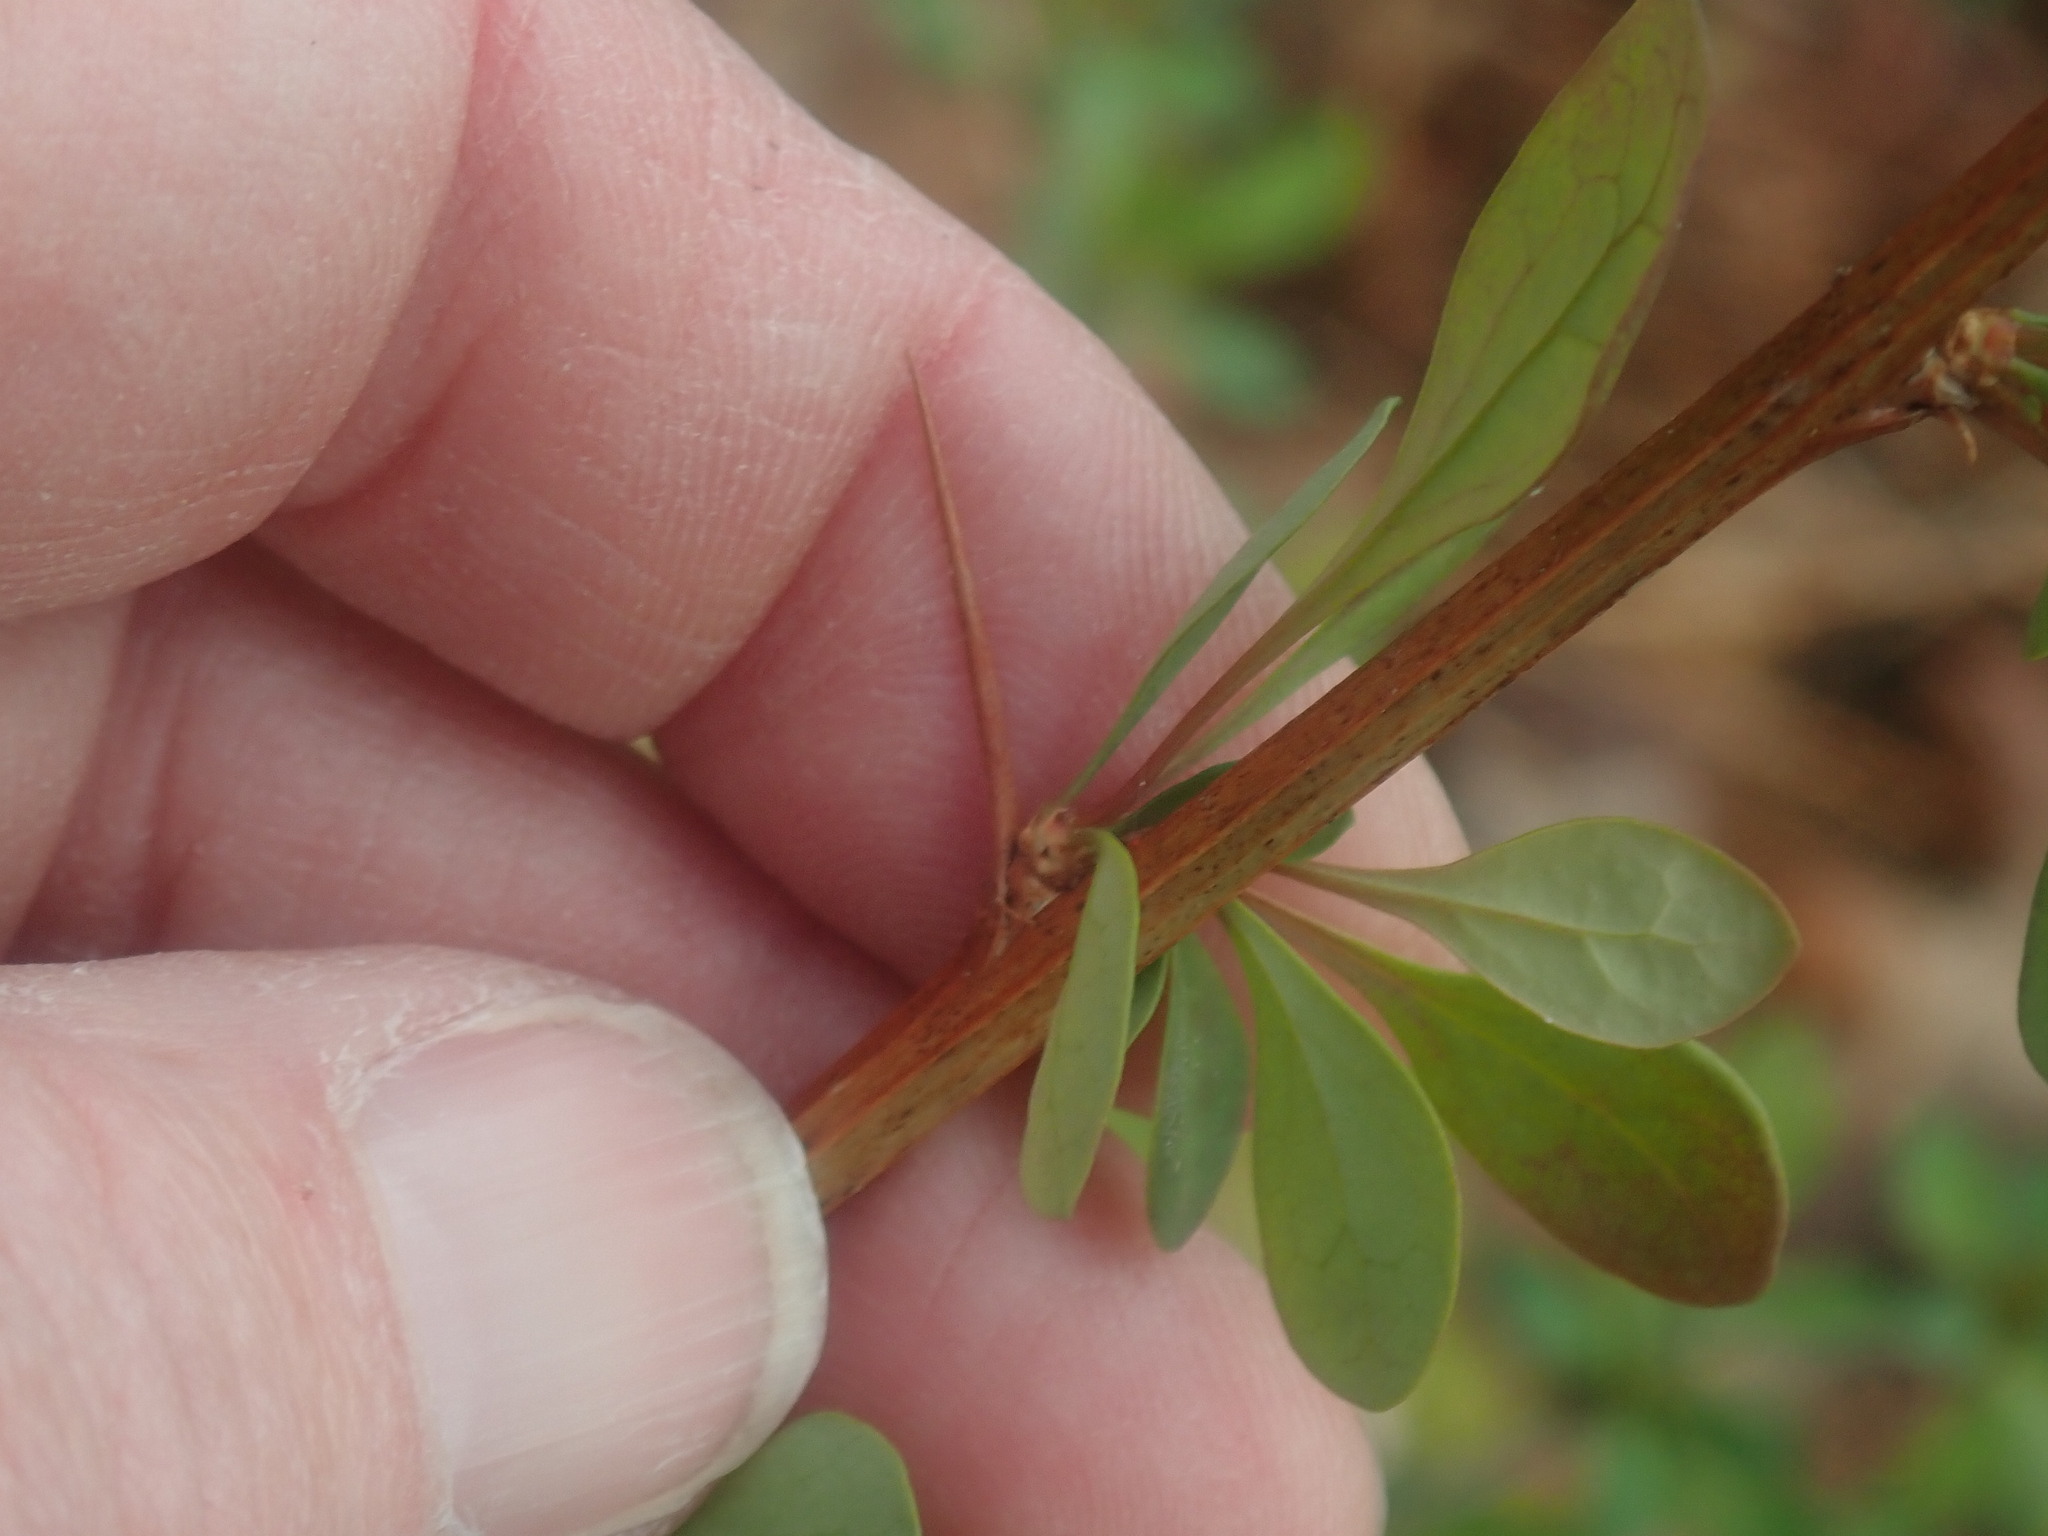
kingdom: Plantae
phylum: Tracheophyta
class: Magnoliopsida
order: Ranunculales
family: Berberidaceae
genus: Berberis
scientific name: Berberis thunbergii
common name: Japanese barberry
